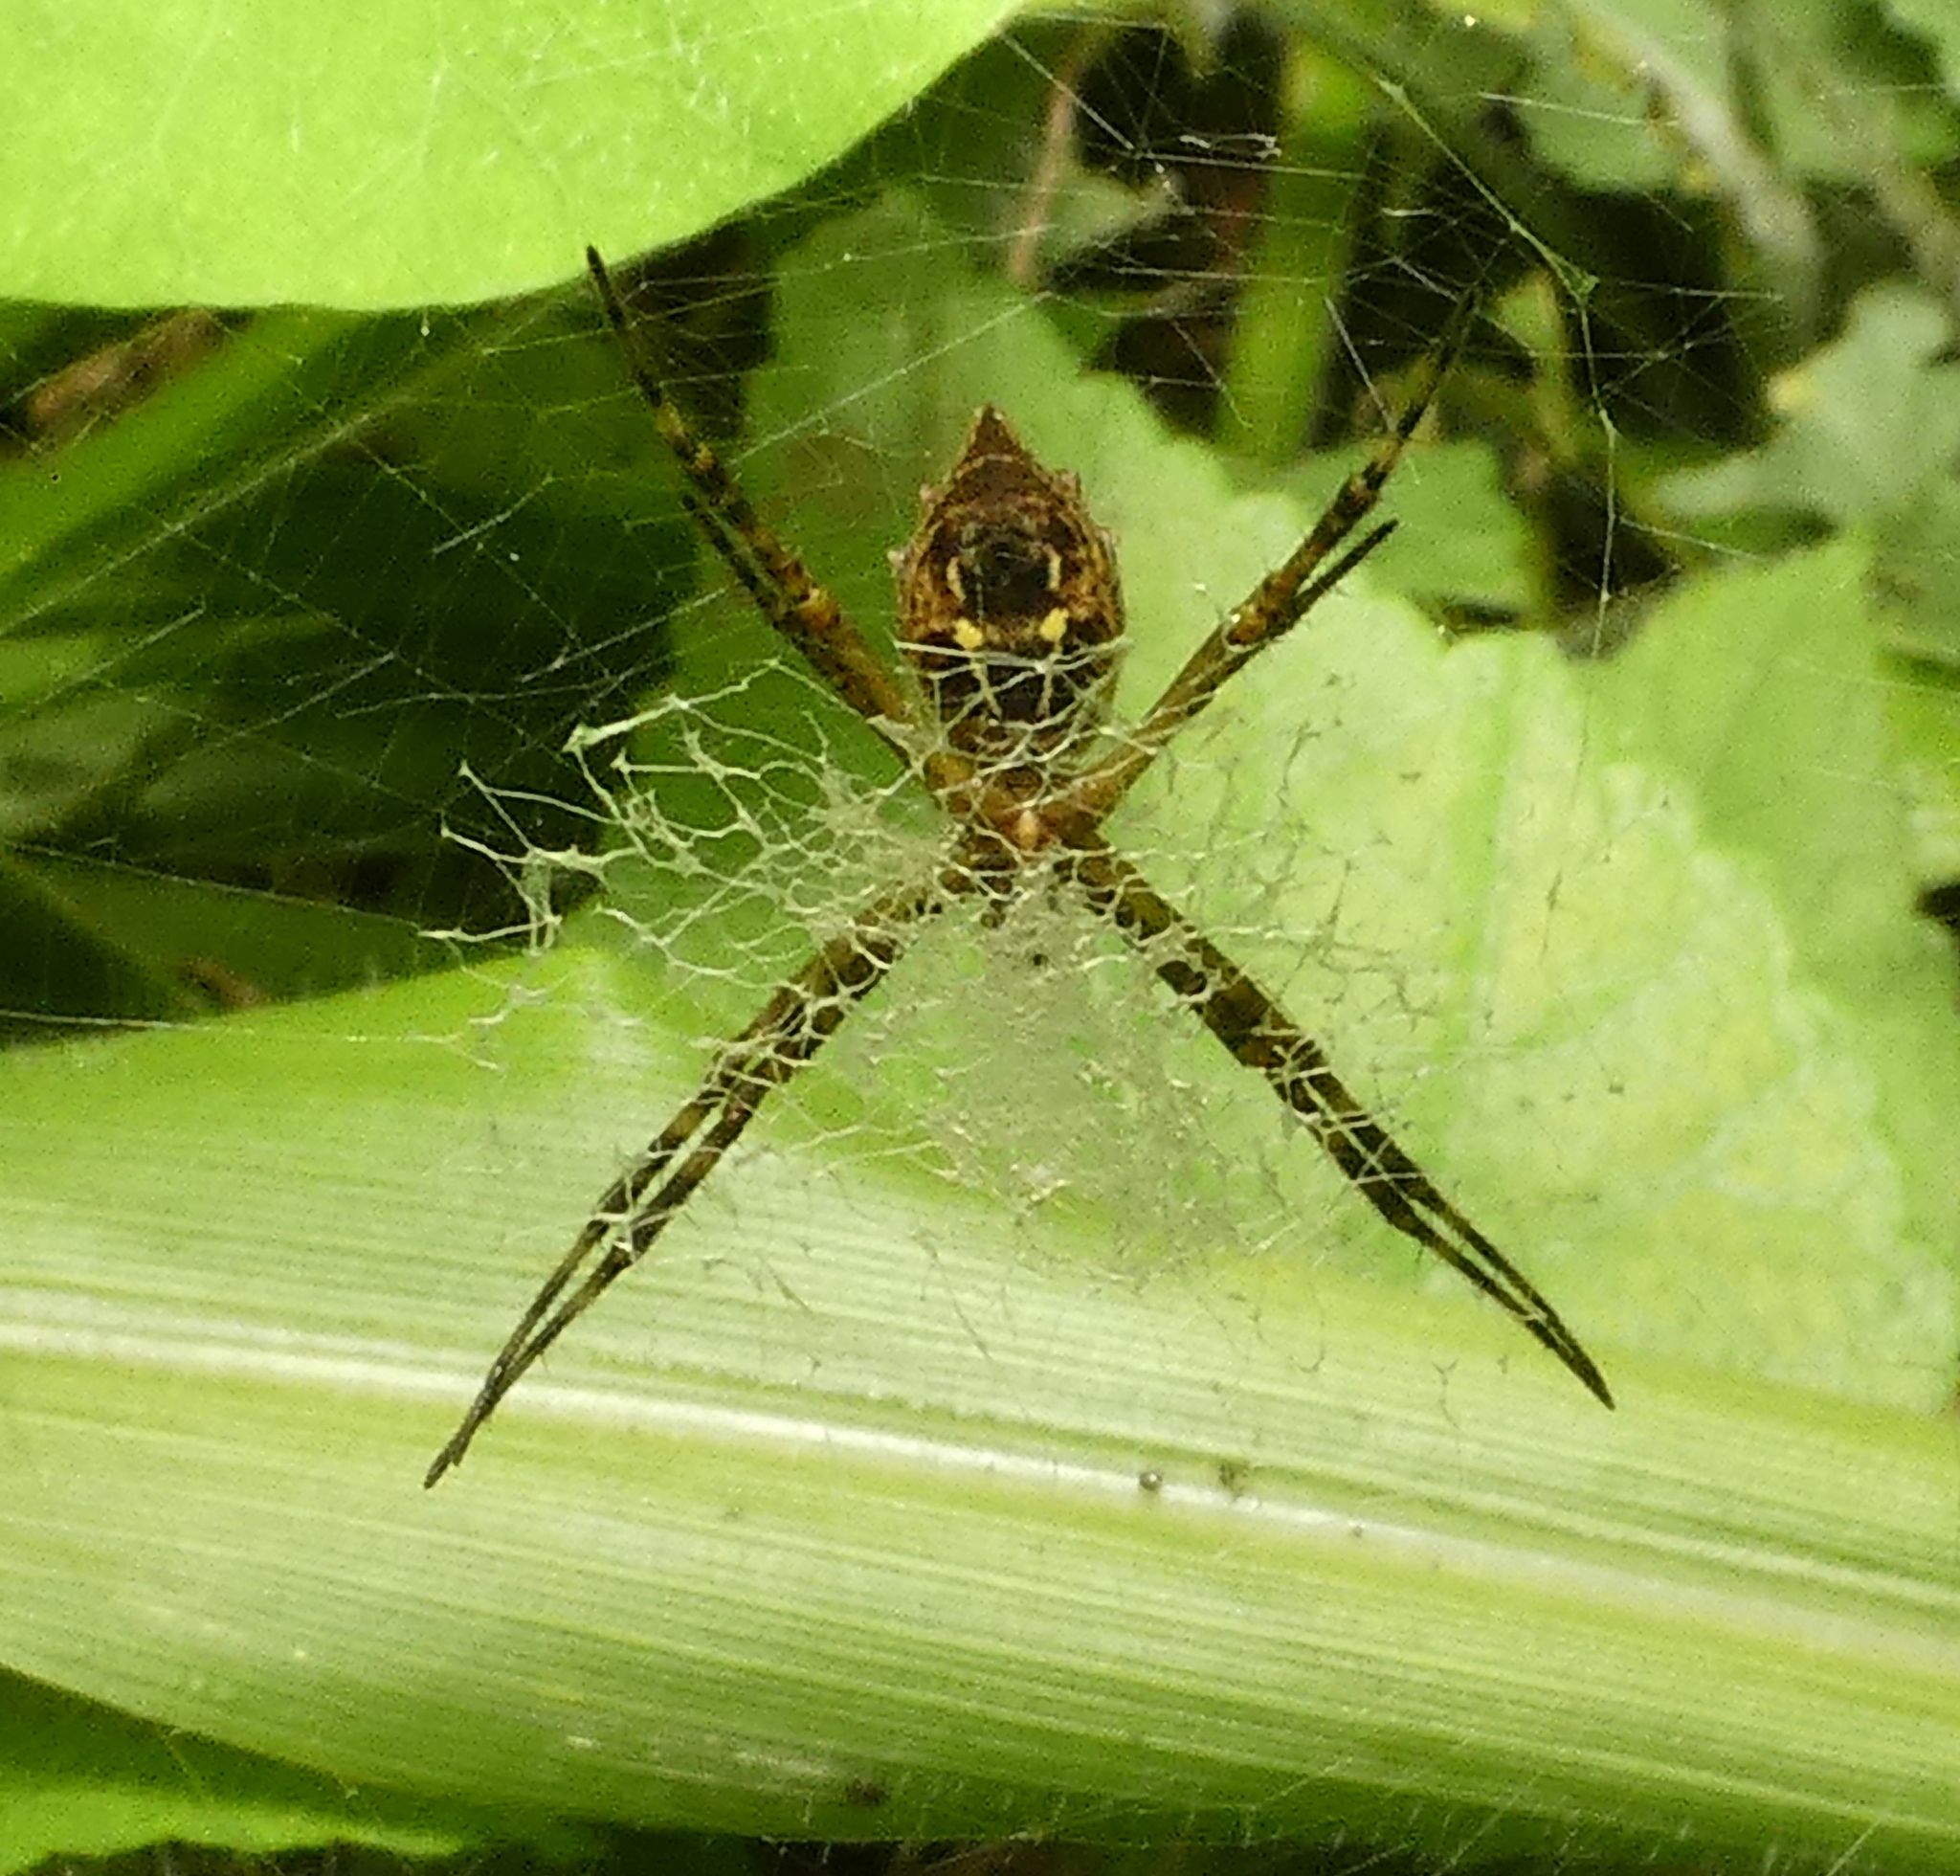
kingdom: Animalia
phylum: Arthropoda
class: Arachnida
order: Araneae
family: Araneidae
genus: Argiope
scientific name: Argiope argentata
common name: Orb weavers
